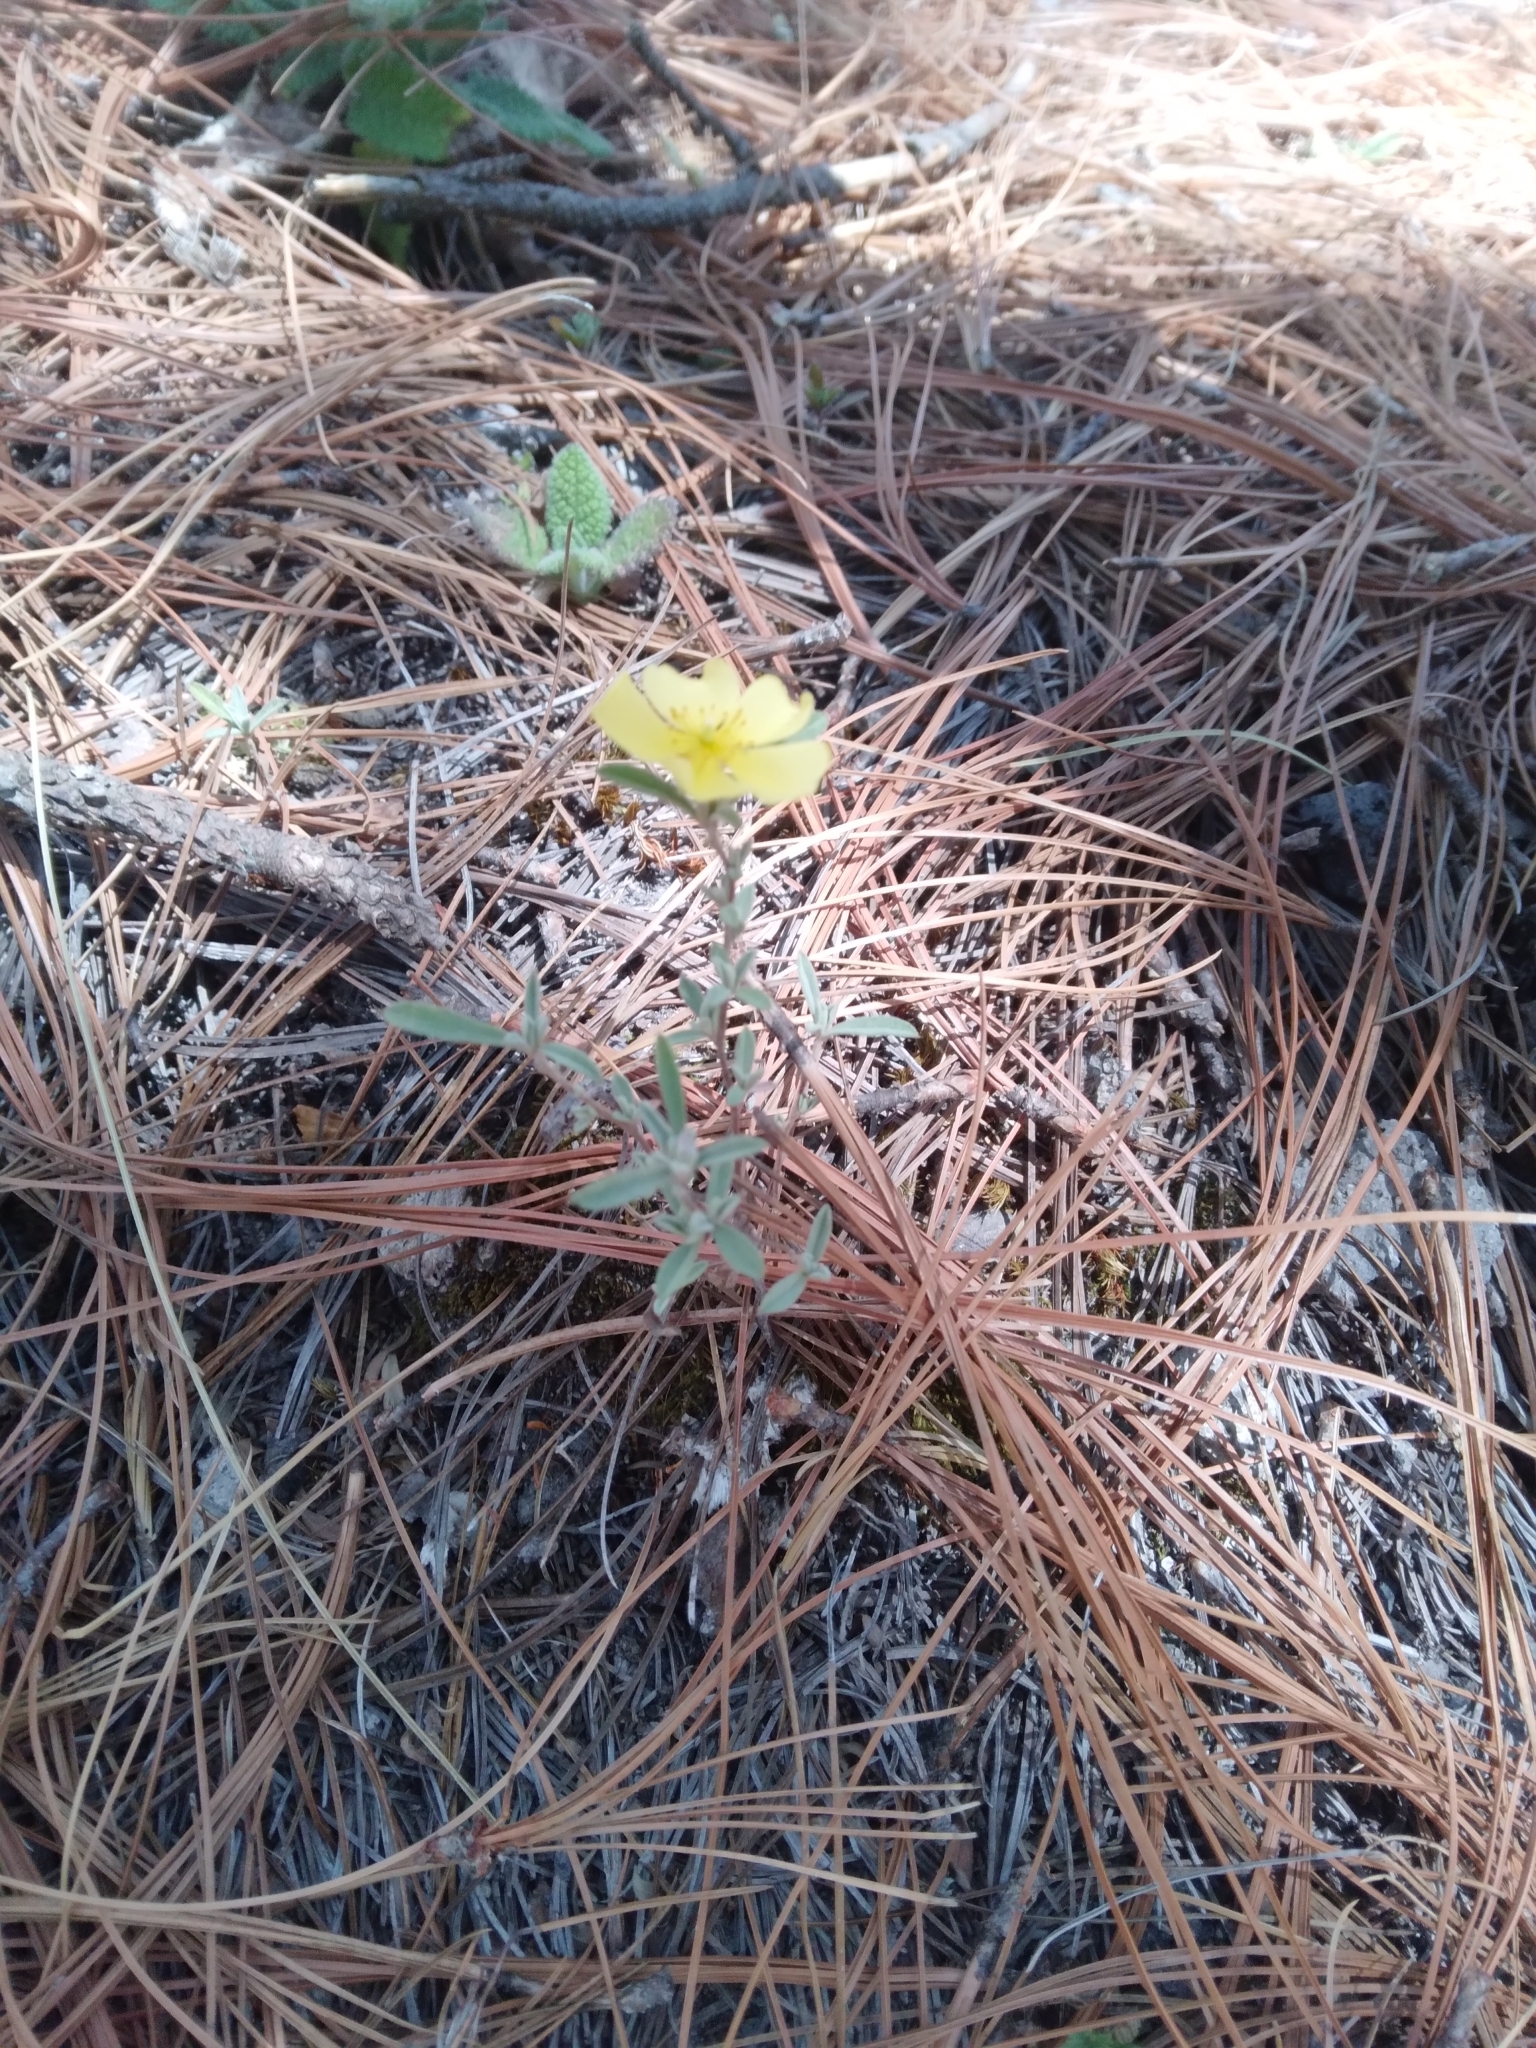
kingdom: Plantae
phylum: Tracheophyta
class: Magnoliopsida
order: Malvales
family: Cistaceae
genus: Crocanthemum
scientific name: Crocanthemum glomeratum
